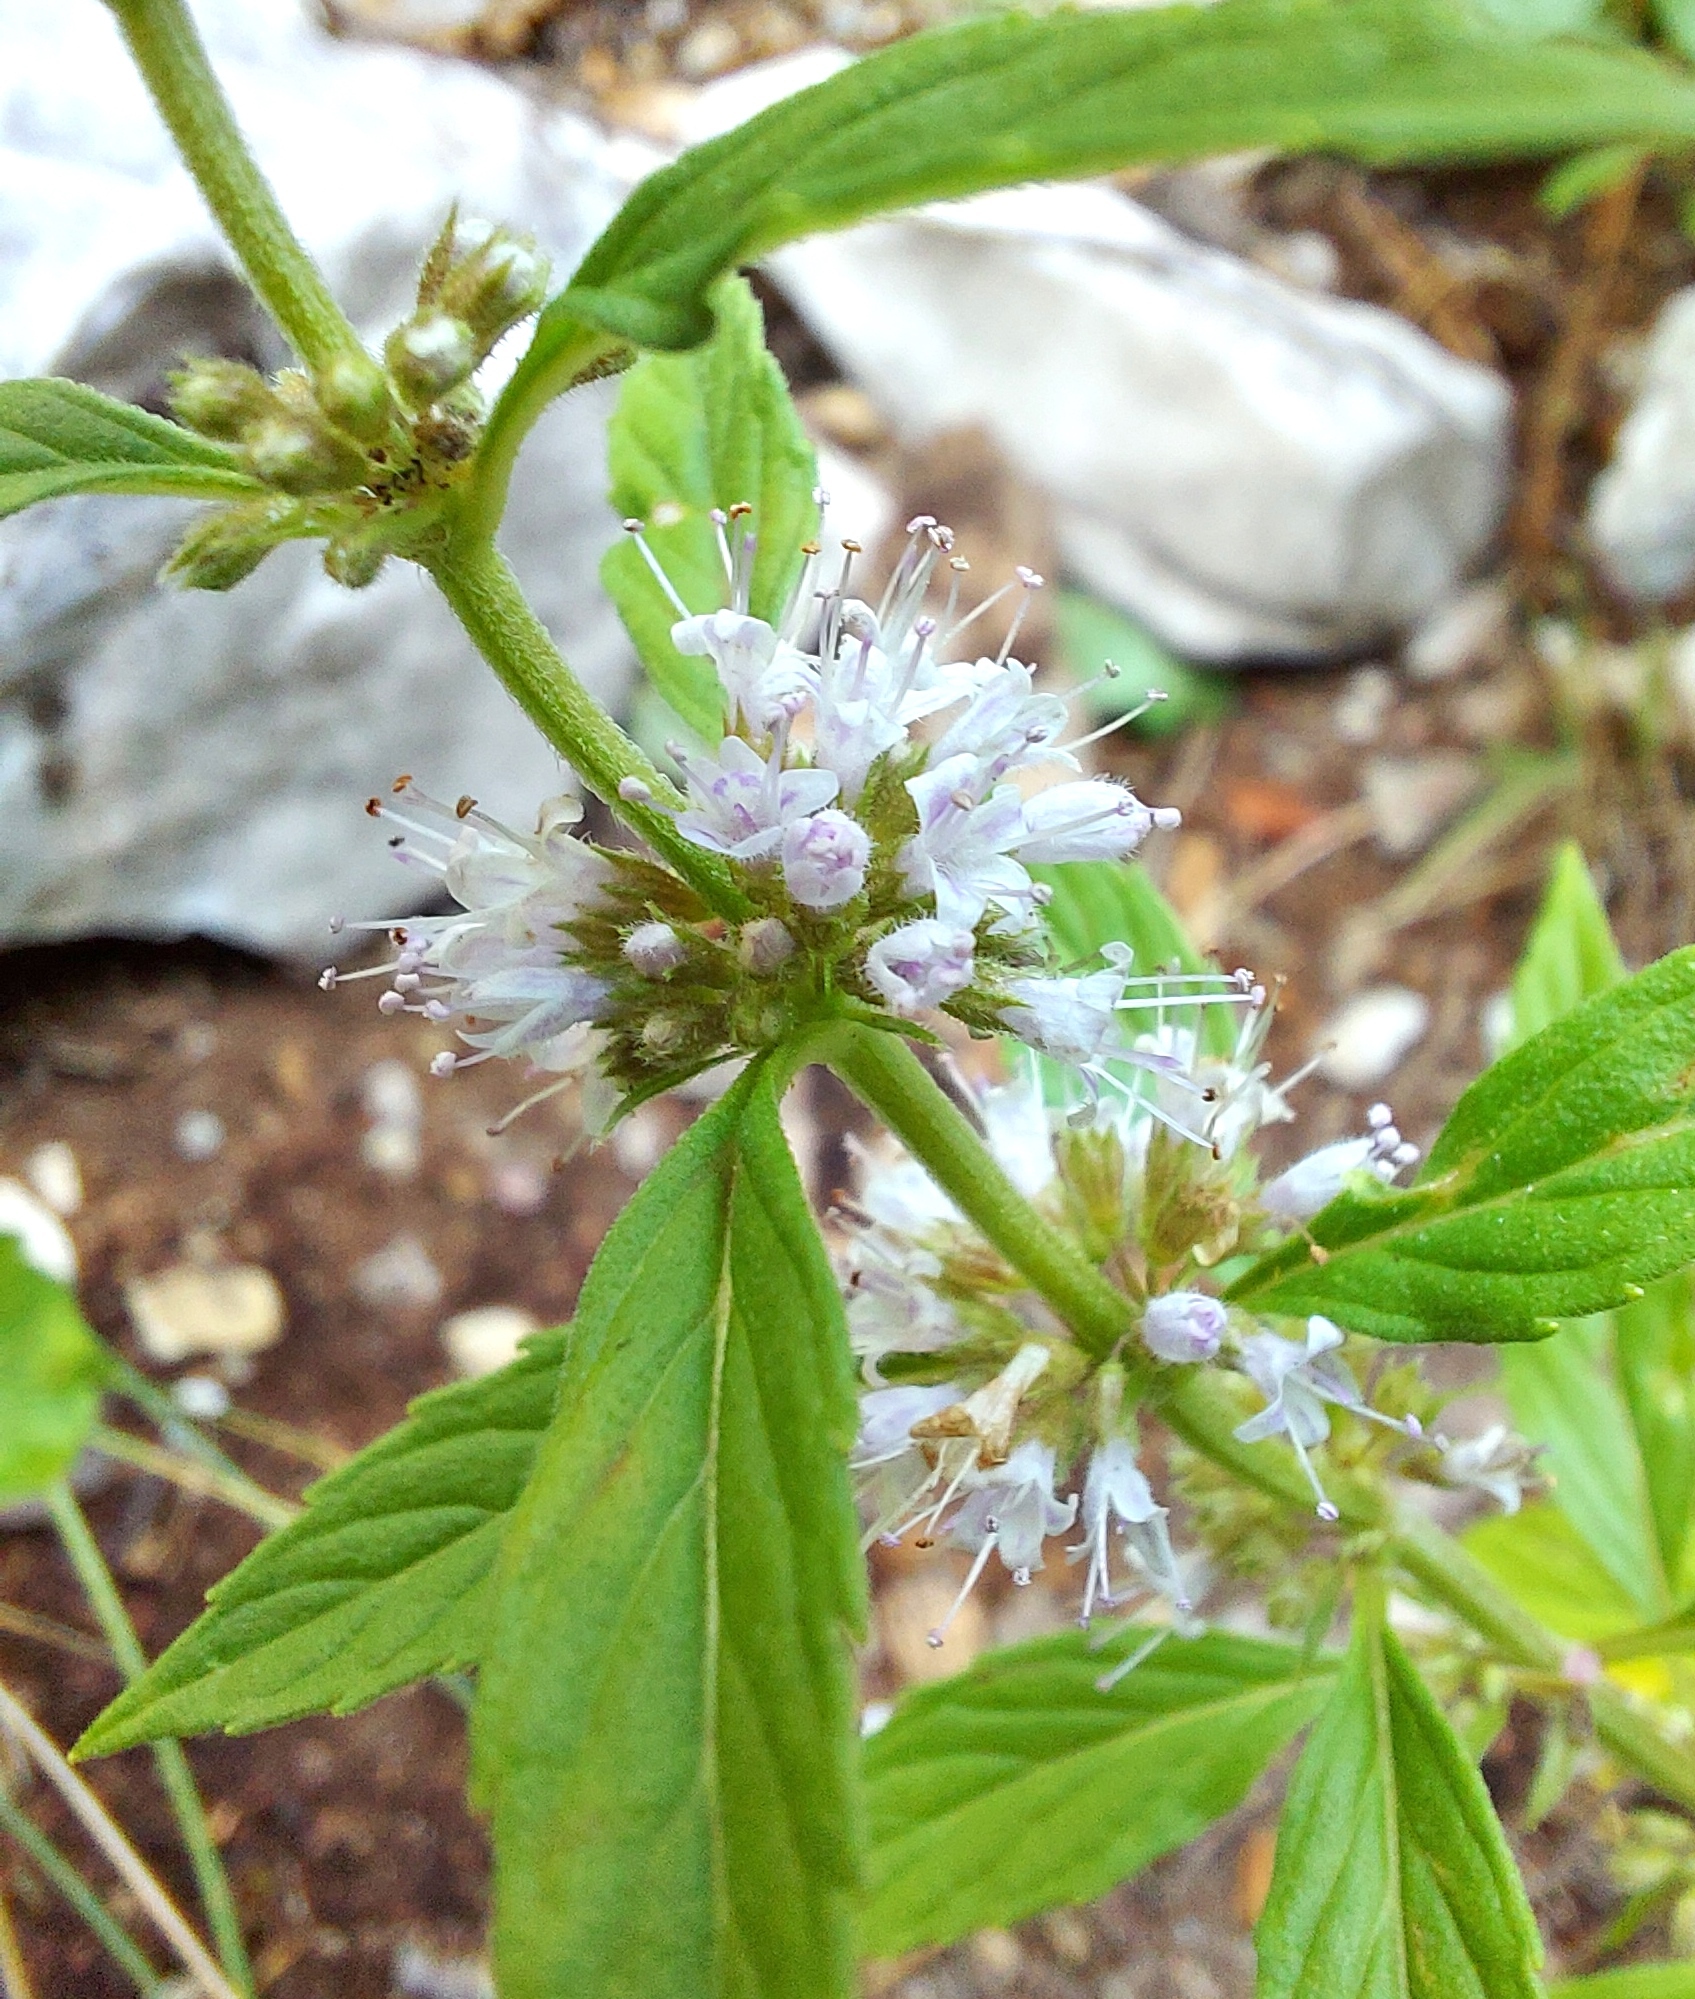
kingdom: Plantae
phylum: Tracheophyta
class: Magnoliopsida
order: Lamiales
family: Lamiaceae
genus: Mentha
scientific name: Mentha canadensis
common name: American corn mint
